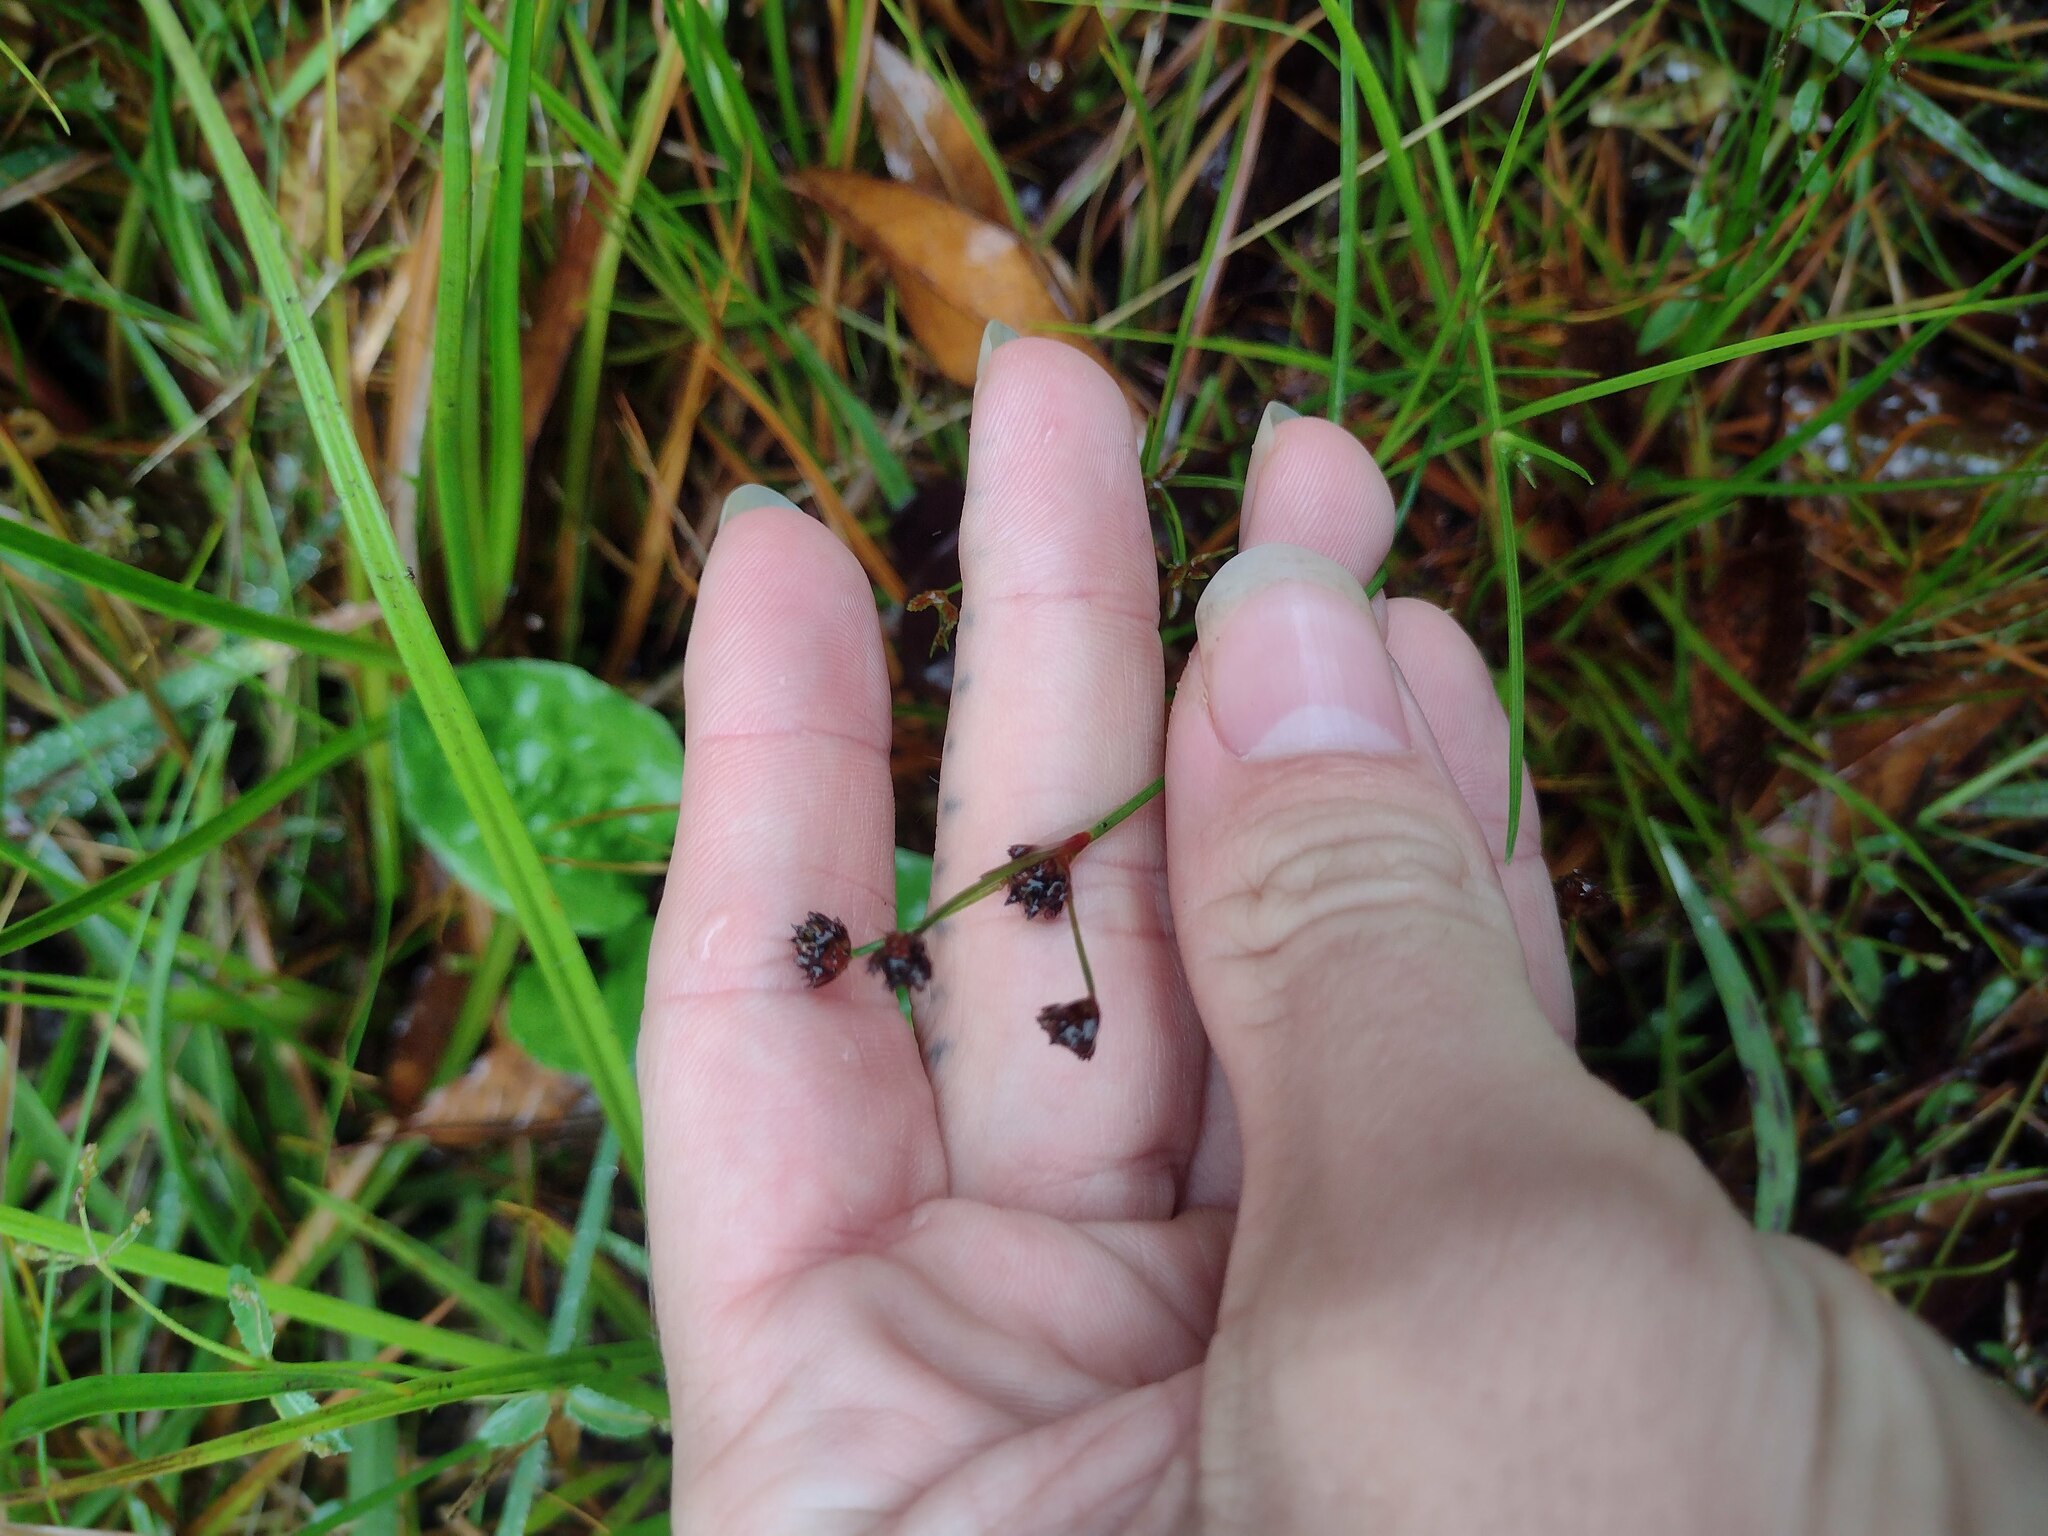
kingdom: Plantae
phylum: Tracheophyta
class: Liliopsida
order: Poales
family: Juncaceae
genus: Juncus
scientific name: Juncus planifolius
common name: Broadleaf rush
